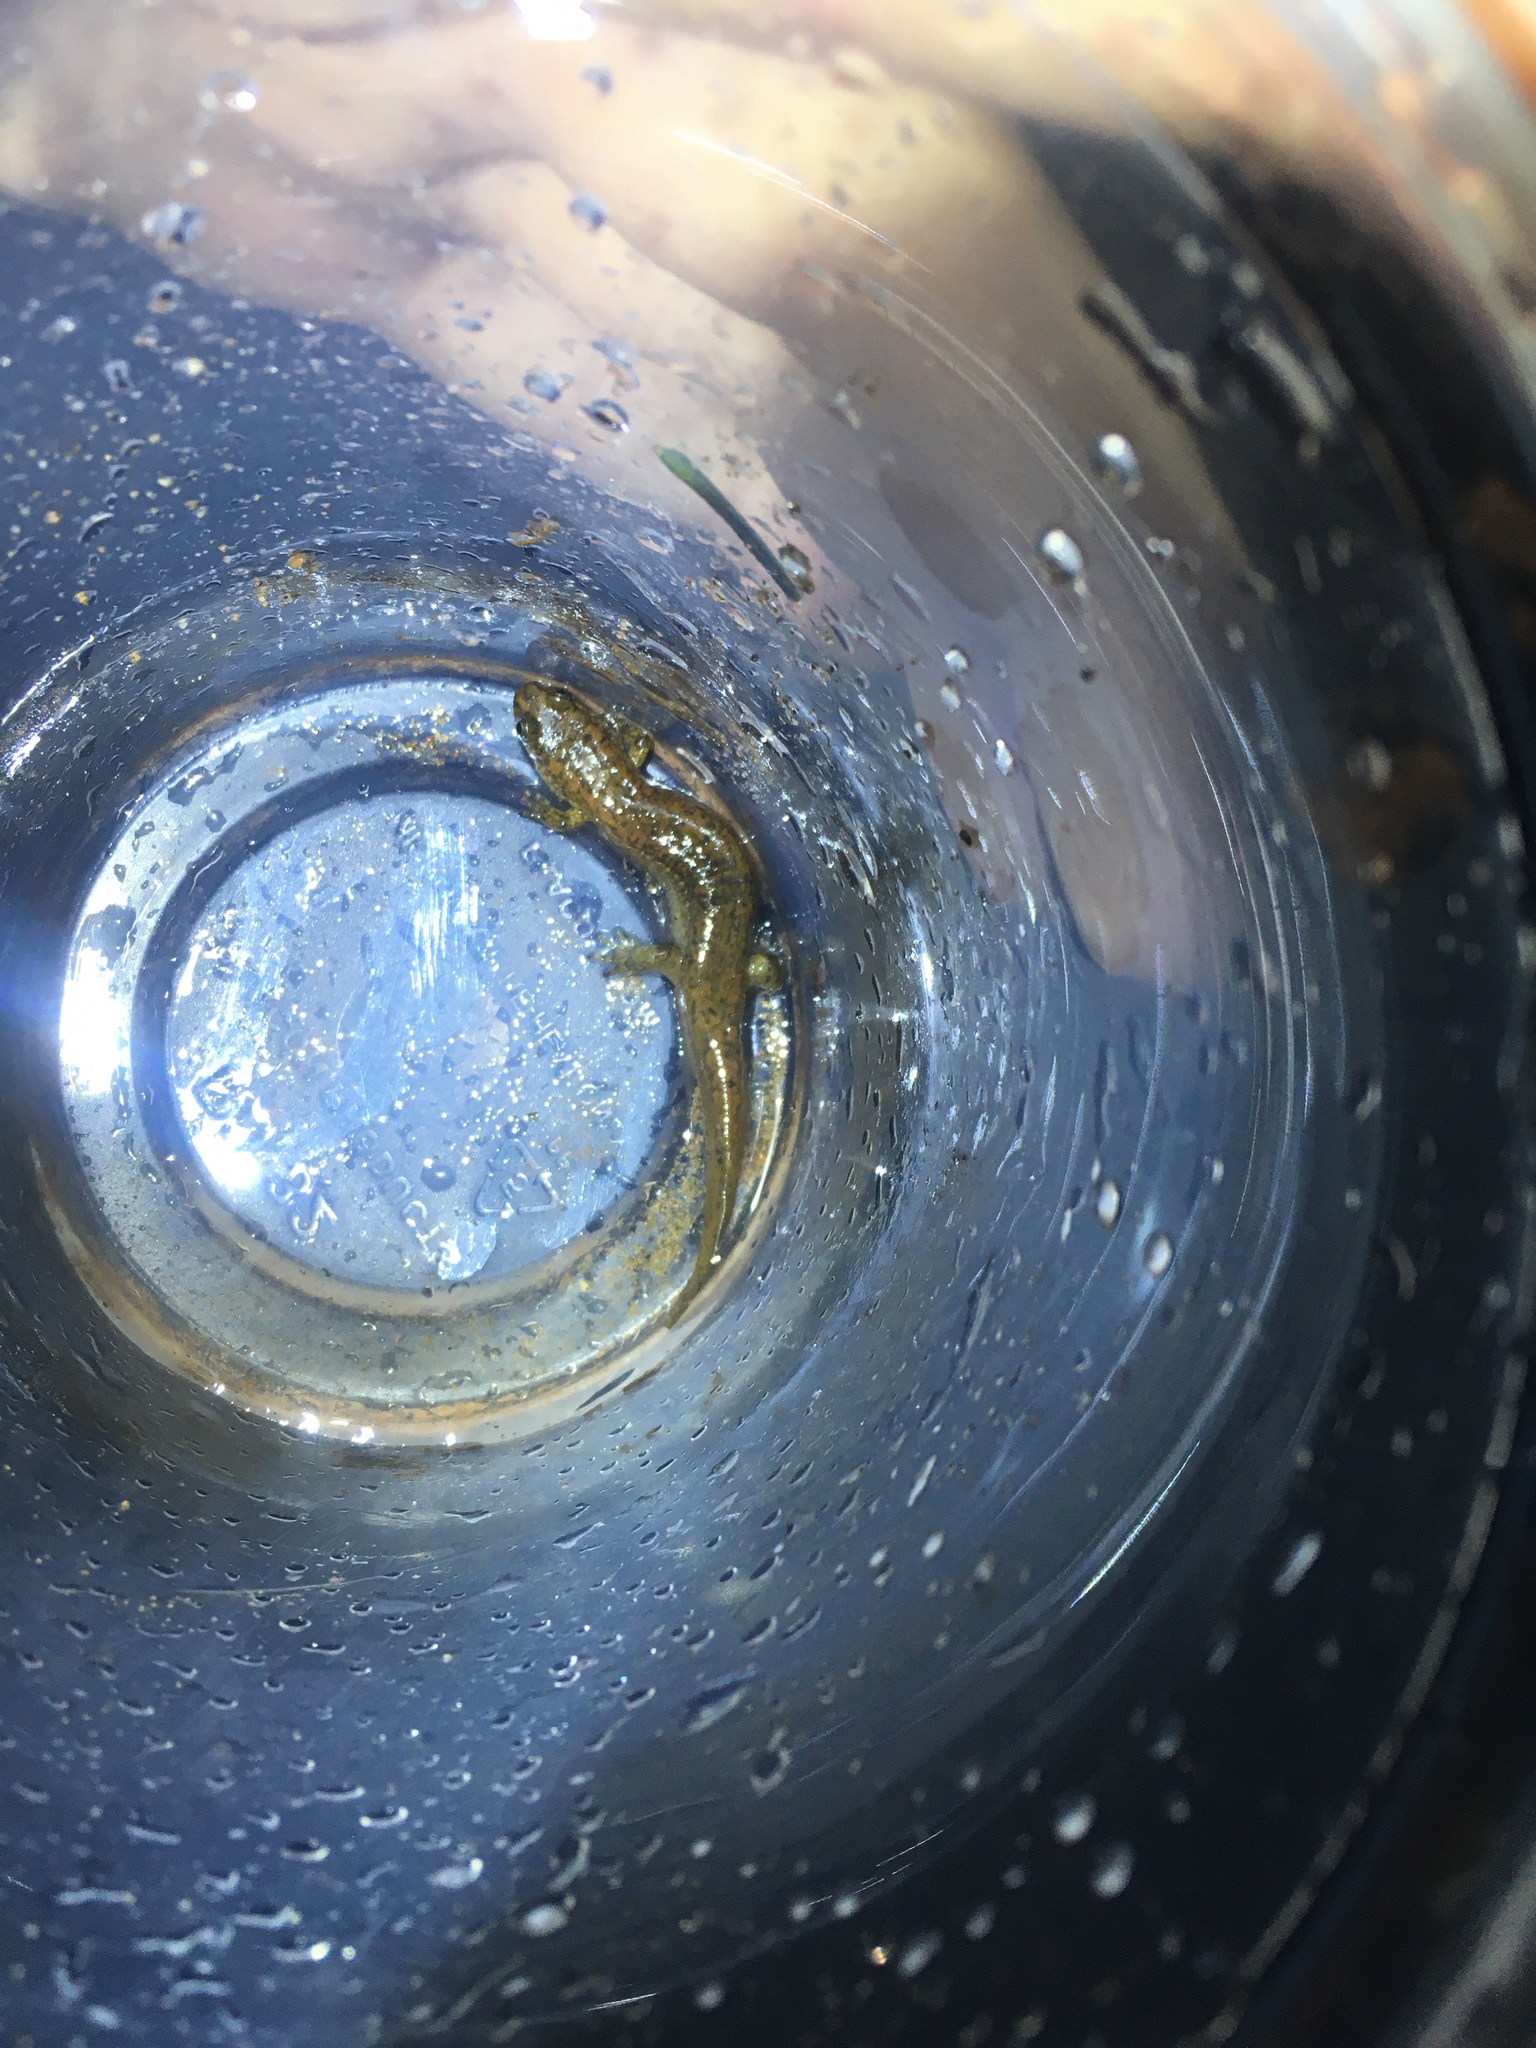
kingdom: Animalia
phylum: Chordata
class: Amphibia
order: Caudata
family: Plethodontidae
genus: Desmognathus
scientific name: Desmognathus
